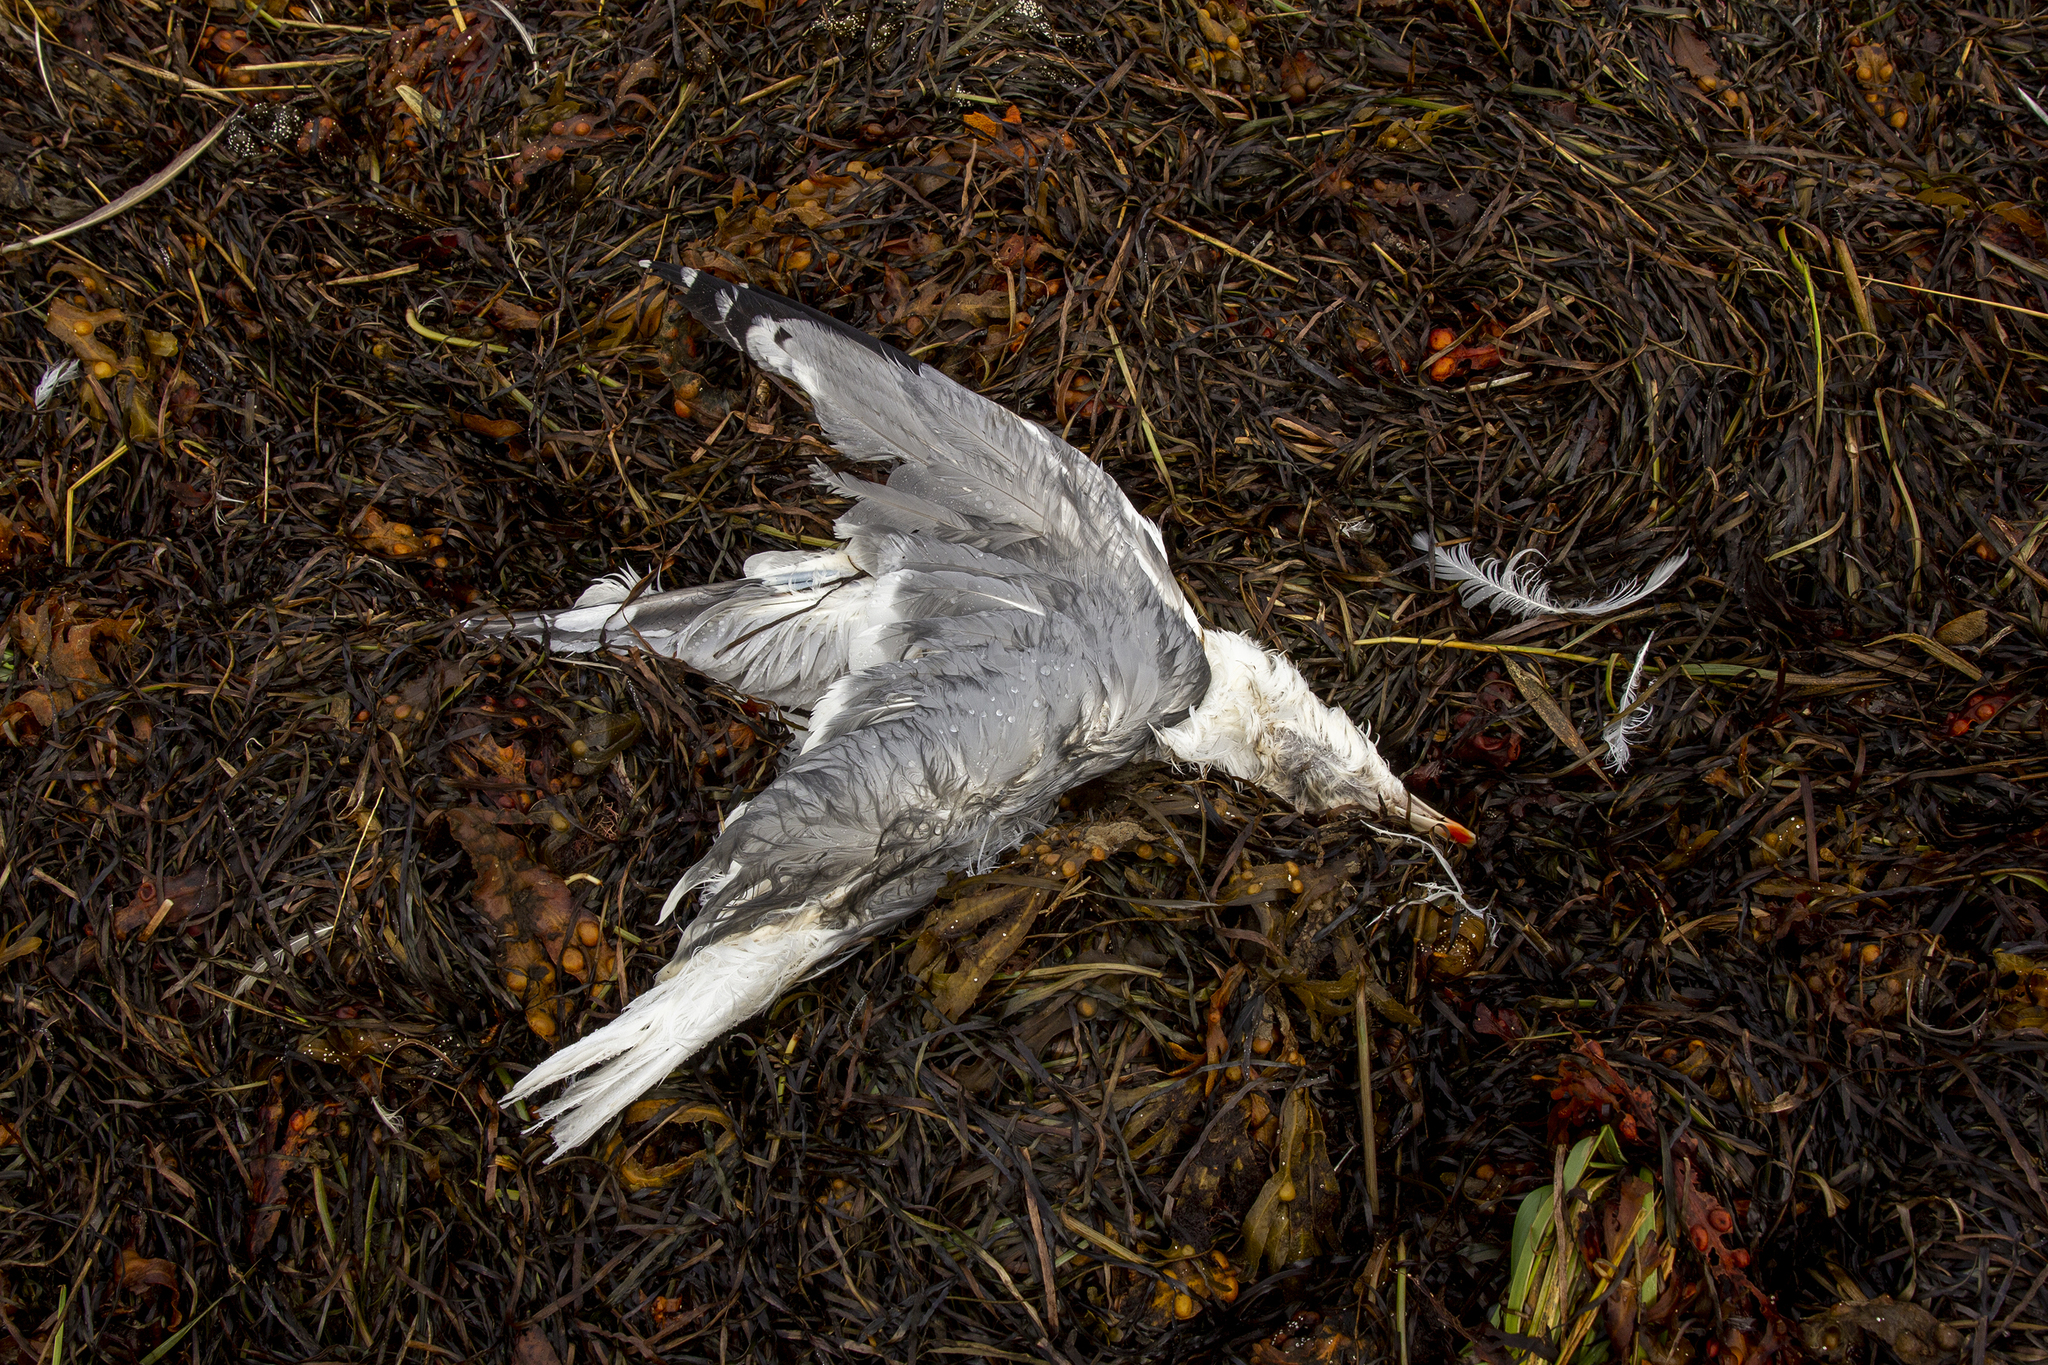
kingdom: Animalia
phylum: Chordata
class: Aves
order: Charadriiformes
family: Laridae
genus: Larus
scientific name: Larus argentatus
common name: Herring gull
